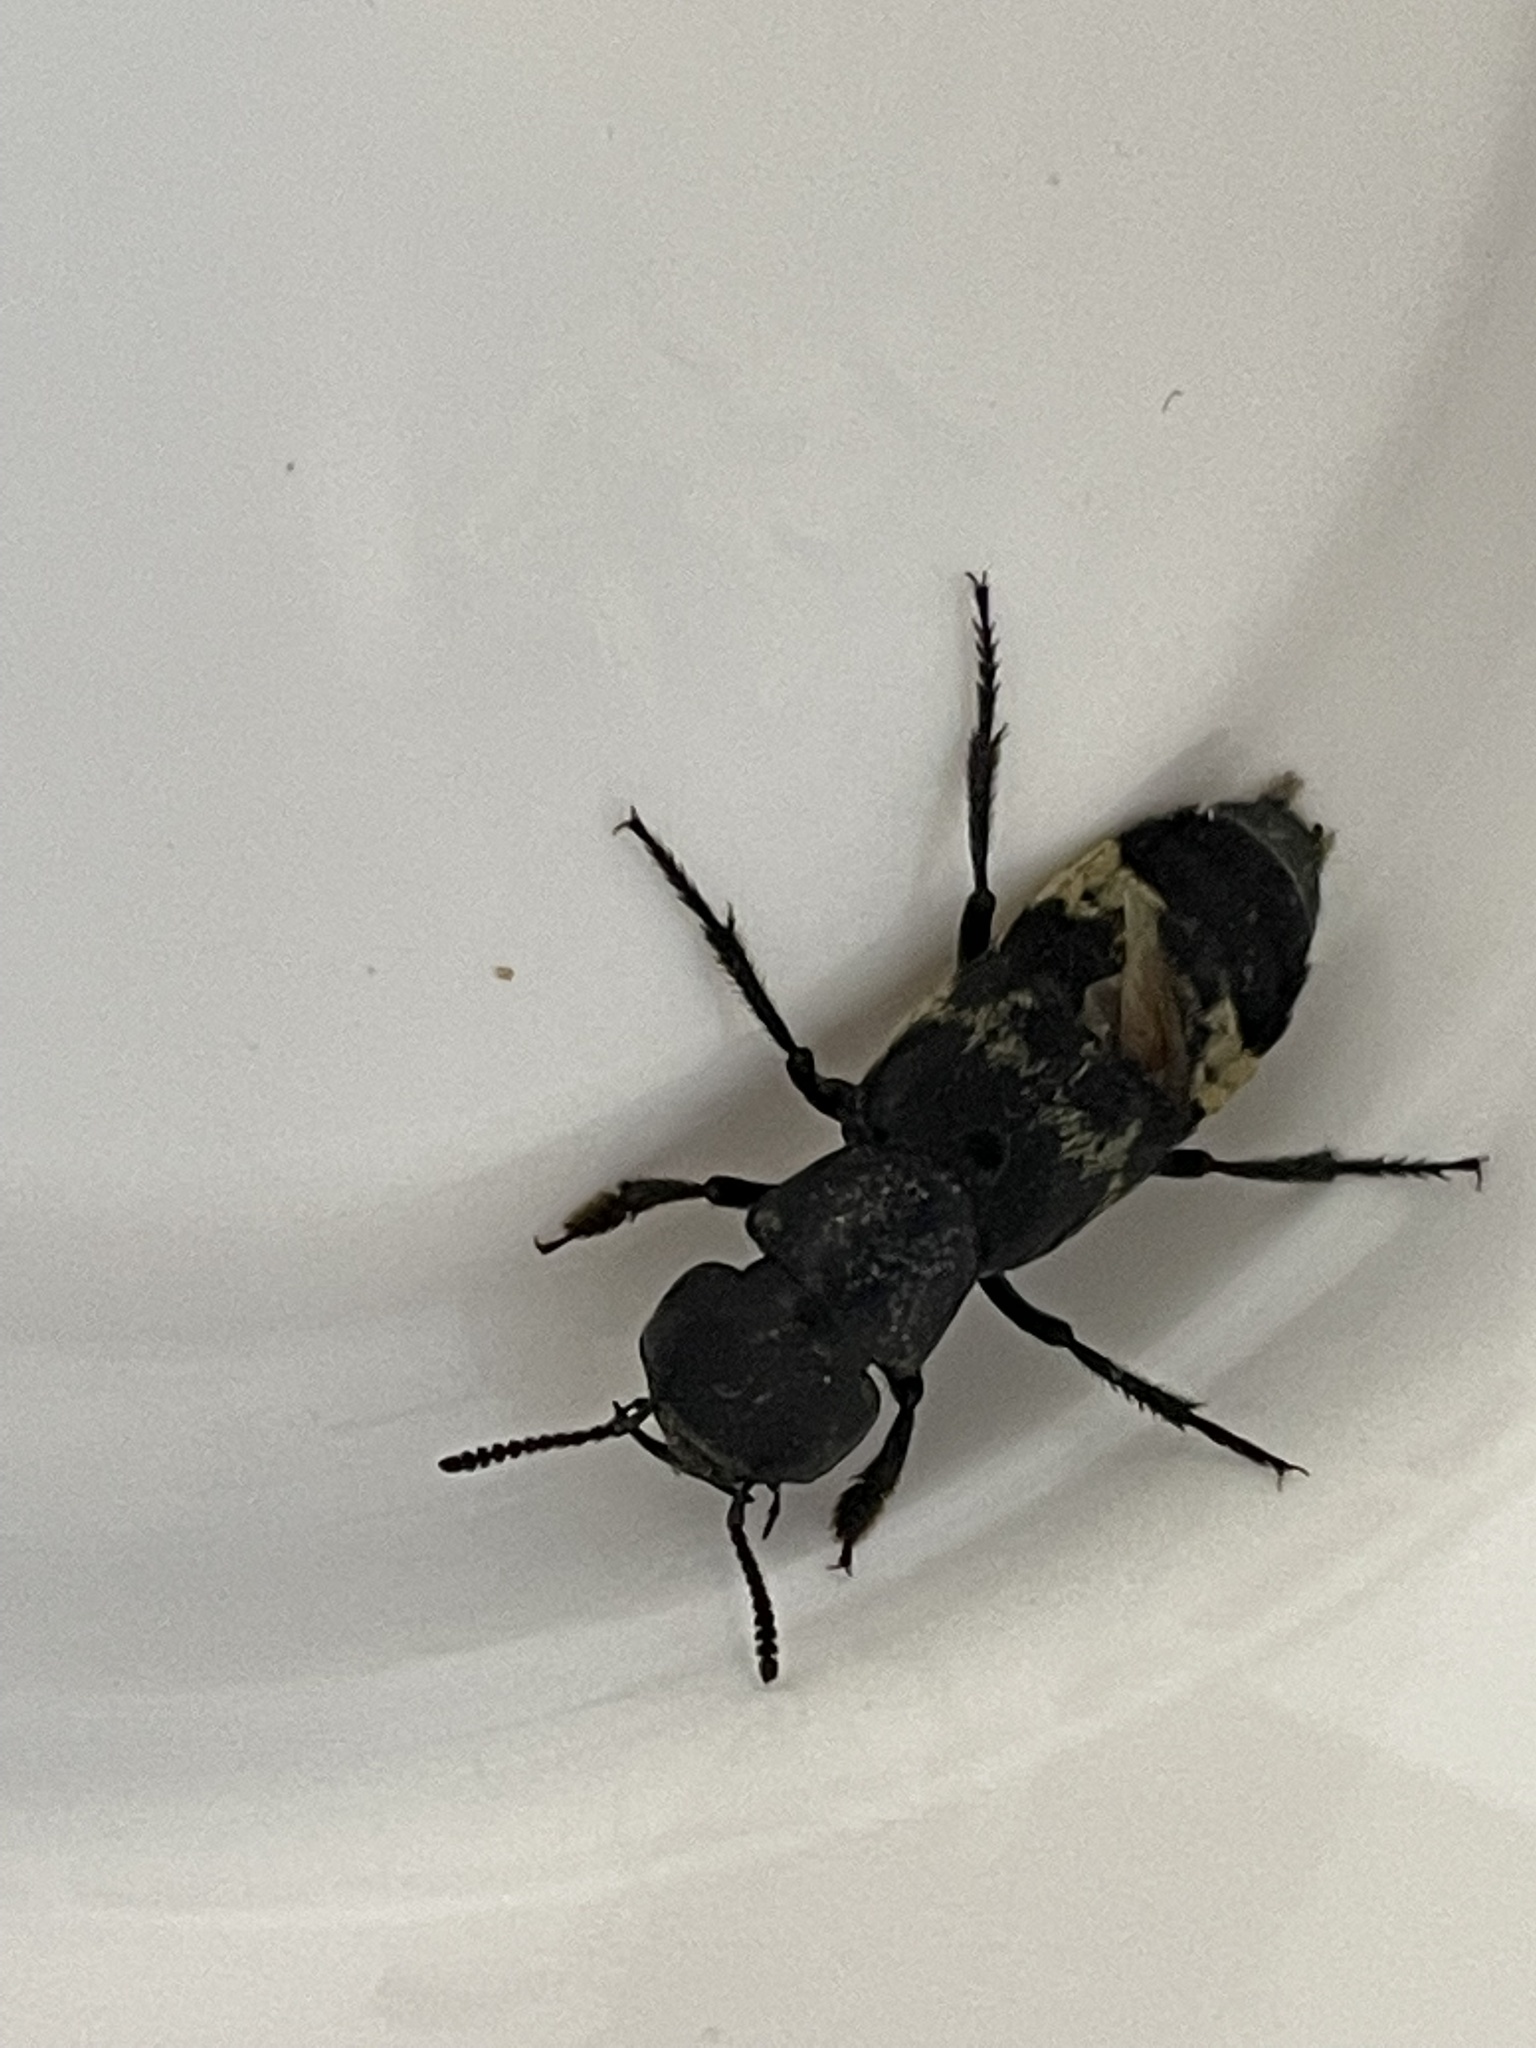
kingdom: Animalia
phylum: Arthropoda
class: Insecta
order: Coleoptera
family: Staphylinidae
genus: Creophilus
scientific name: Creophilus maxillosus
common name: Hairy rove beetle
